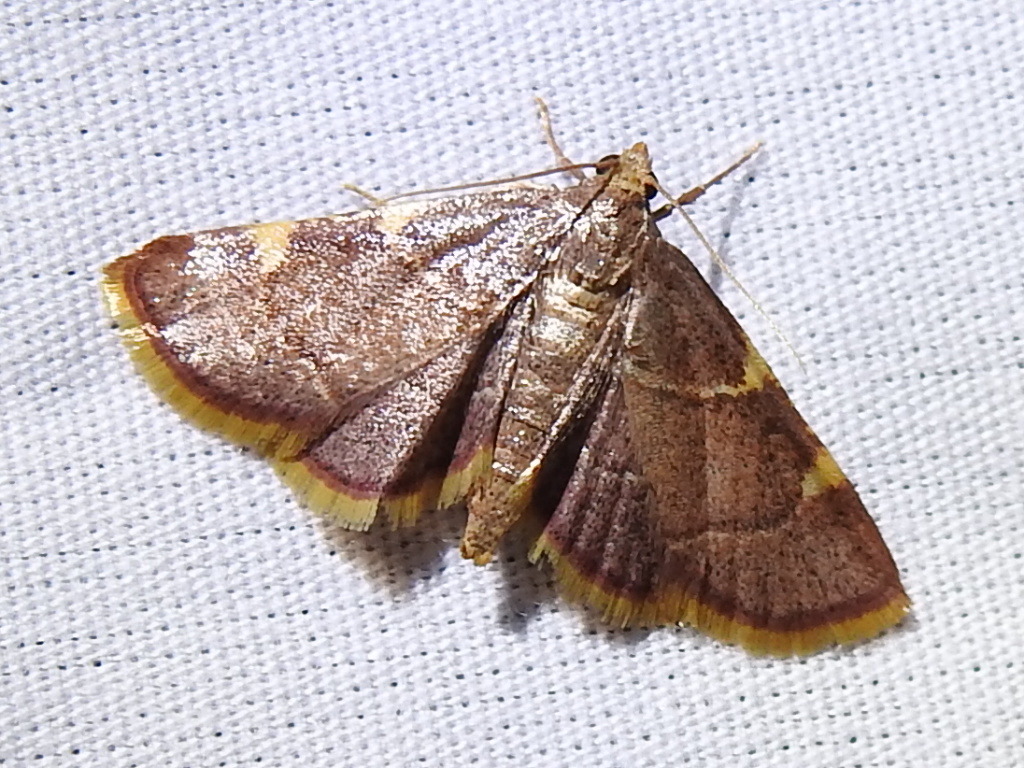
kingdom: Animalia
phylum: Arthropoda
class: Insecta
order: Lepidoptera
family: Pyralidae
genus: Hypsopygia
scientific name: Hypsopygia olinalis
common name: Yellow-fringed dolichomia moth
